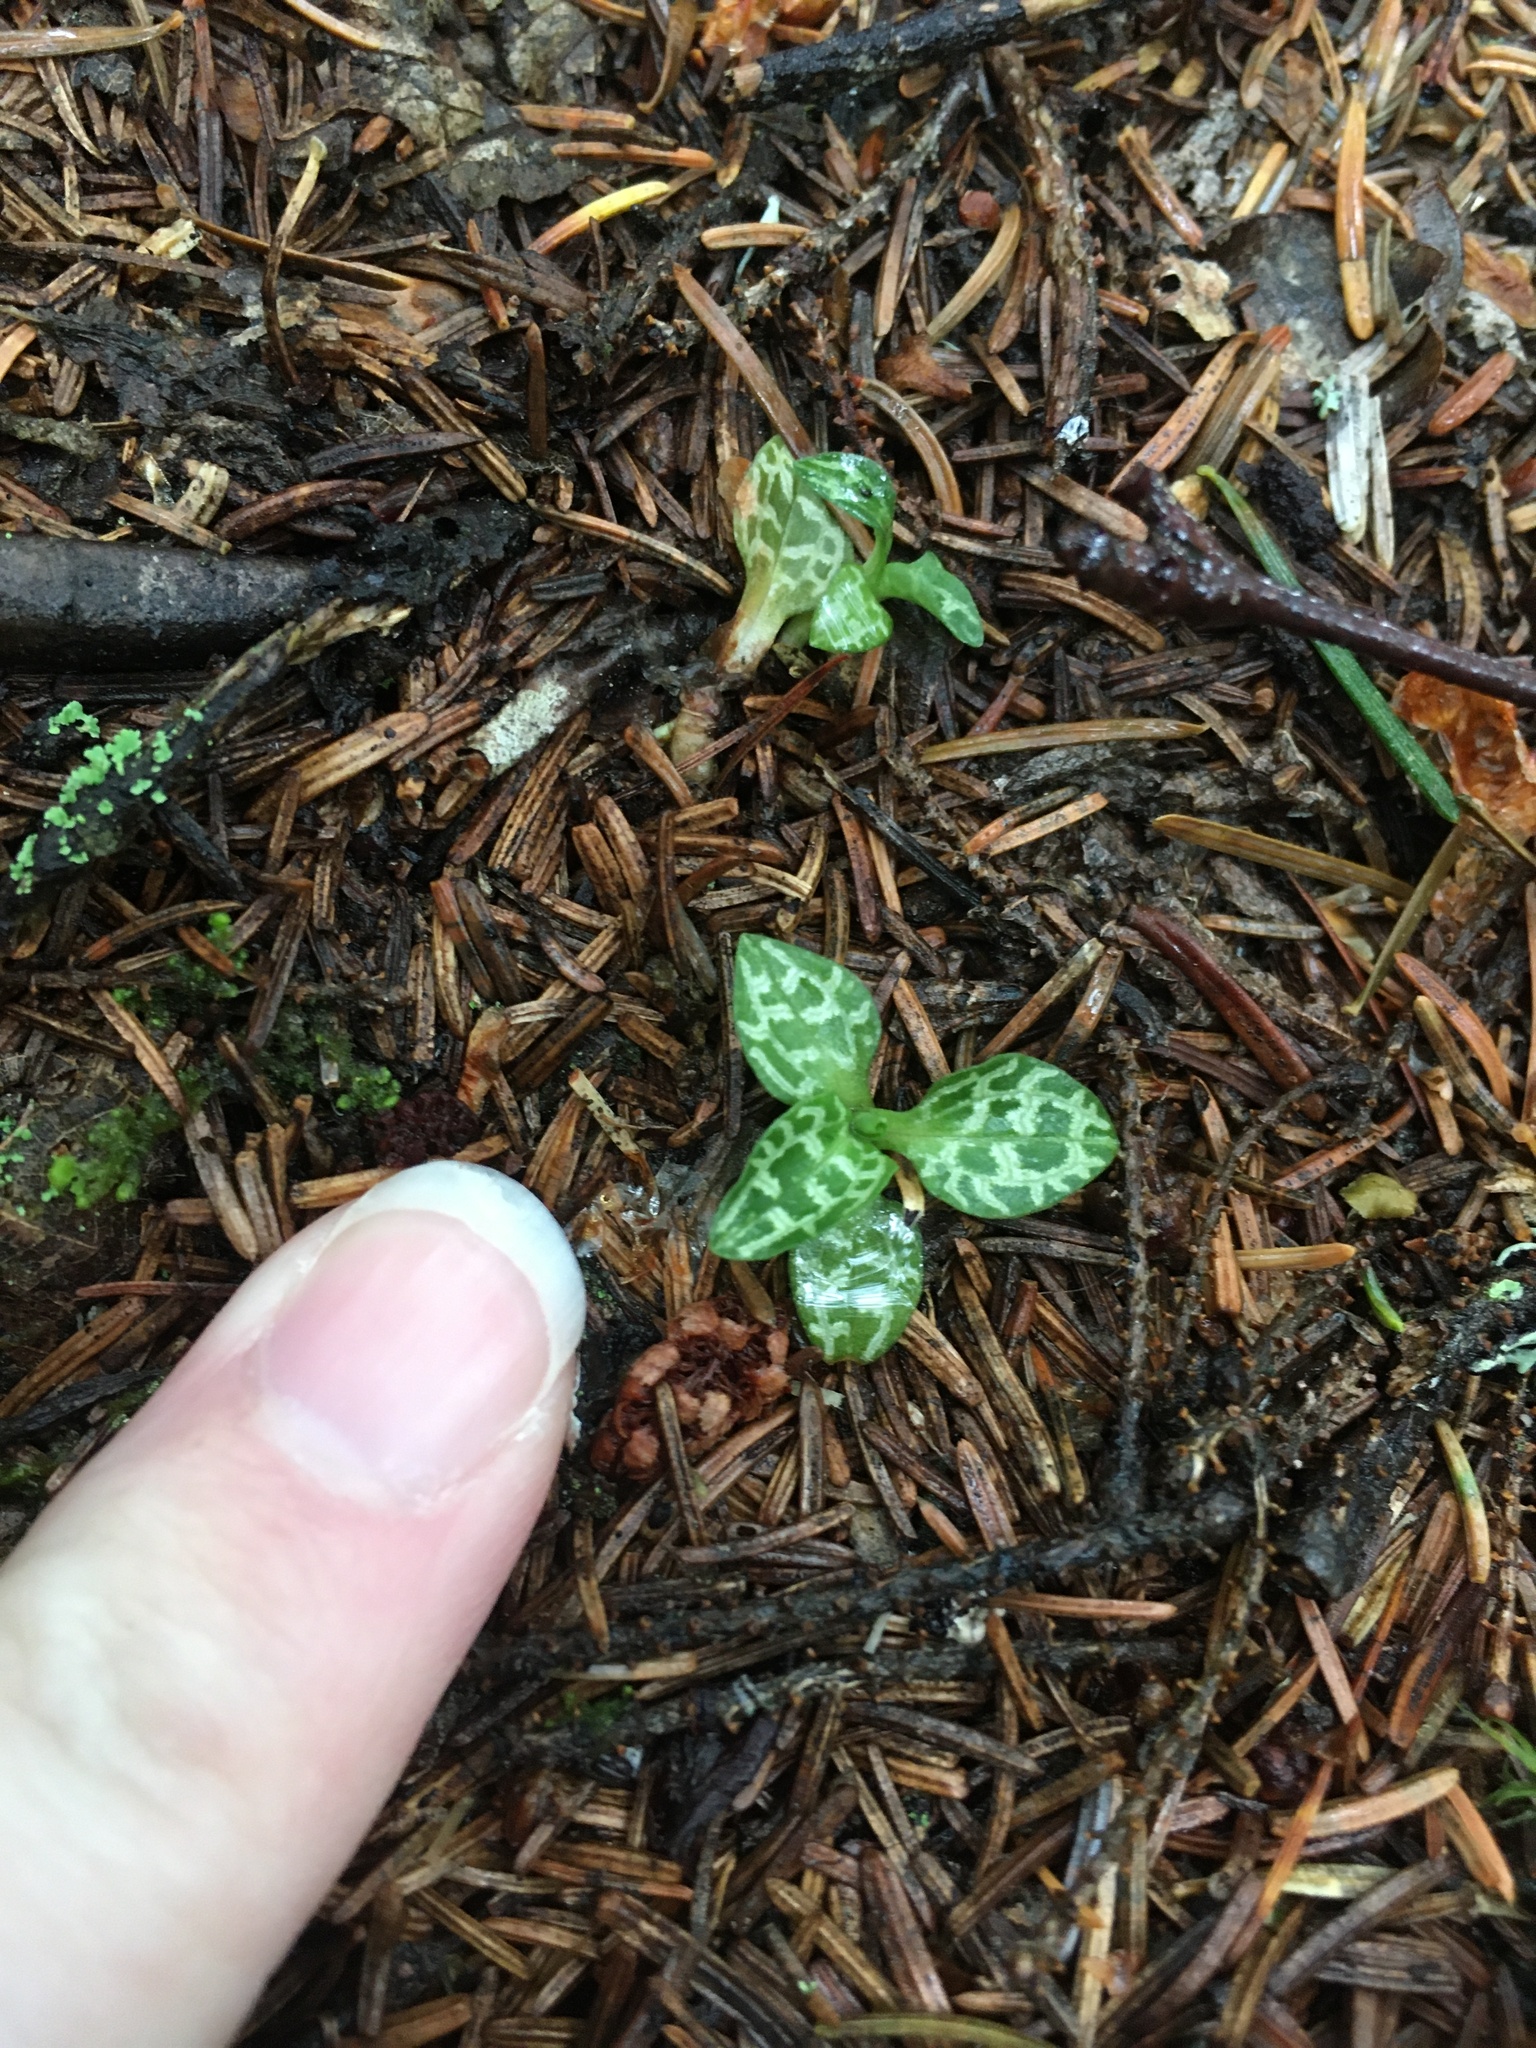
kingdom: Plantae
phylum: Tracheophyta
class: Liliopsida
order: Asparagales
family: Orchidaceae
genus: Goodyera
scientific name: Goodyera repens
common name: Creeping lady's-tresses
